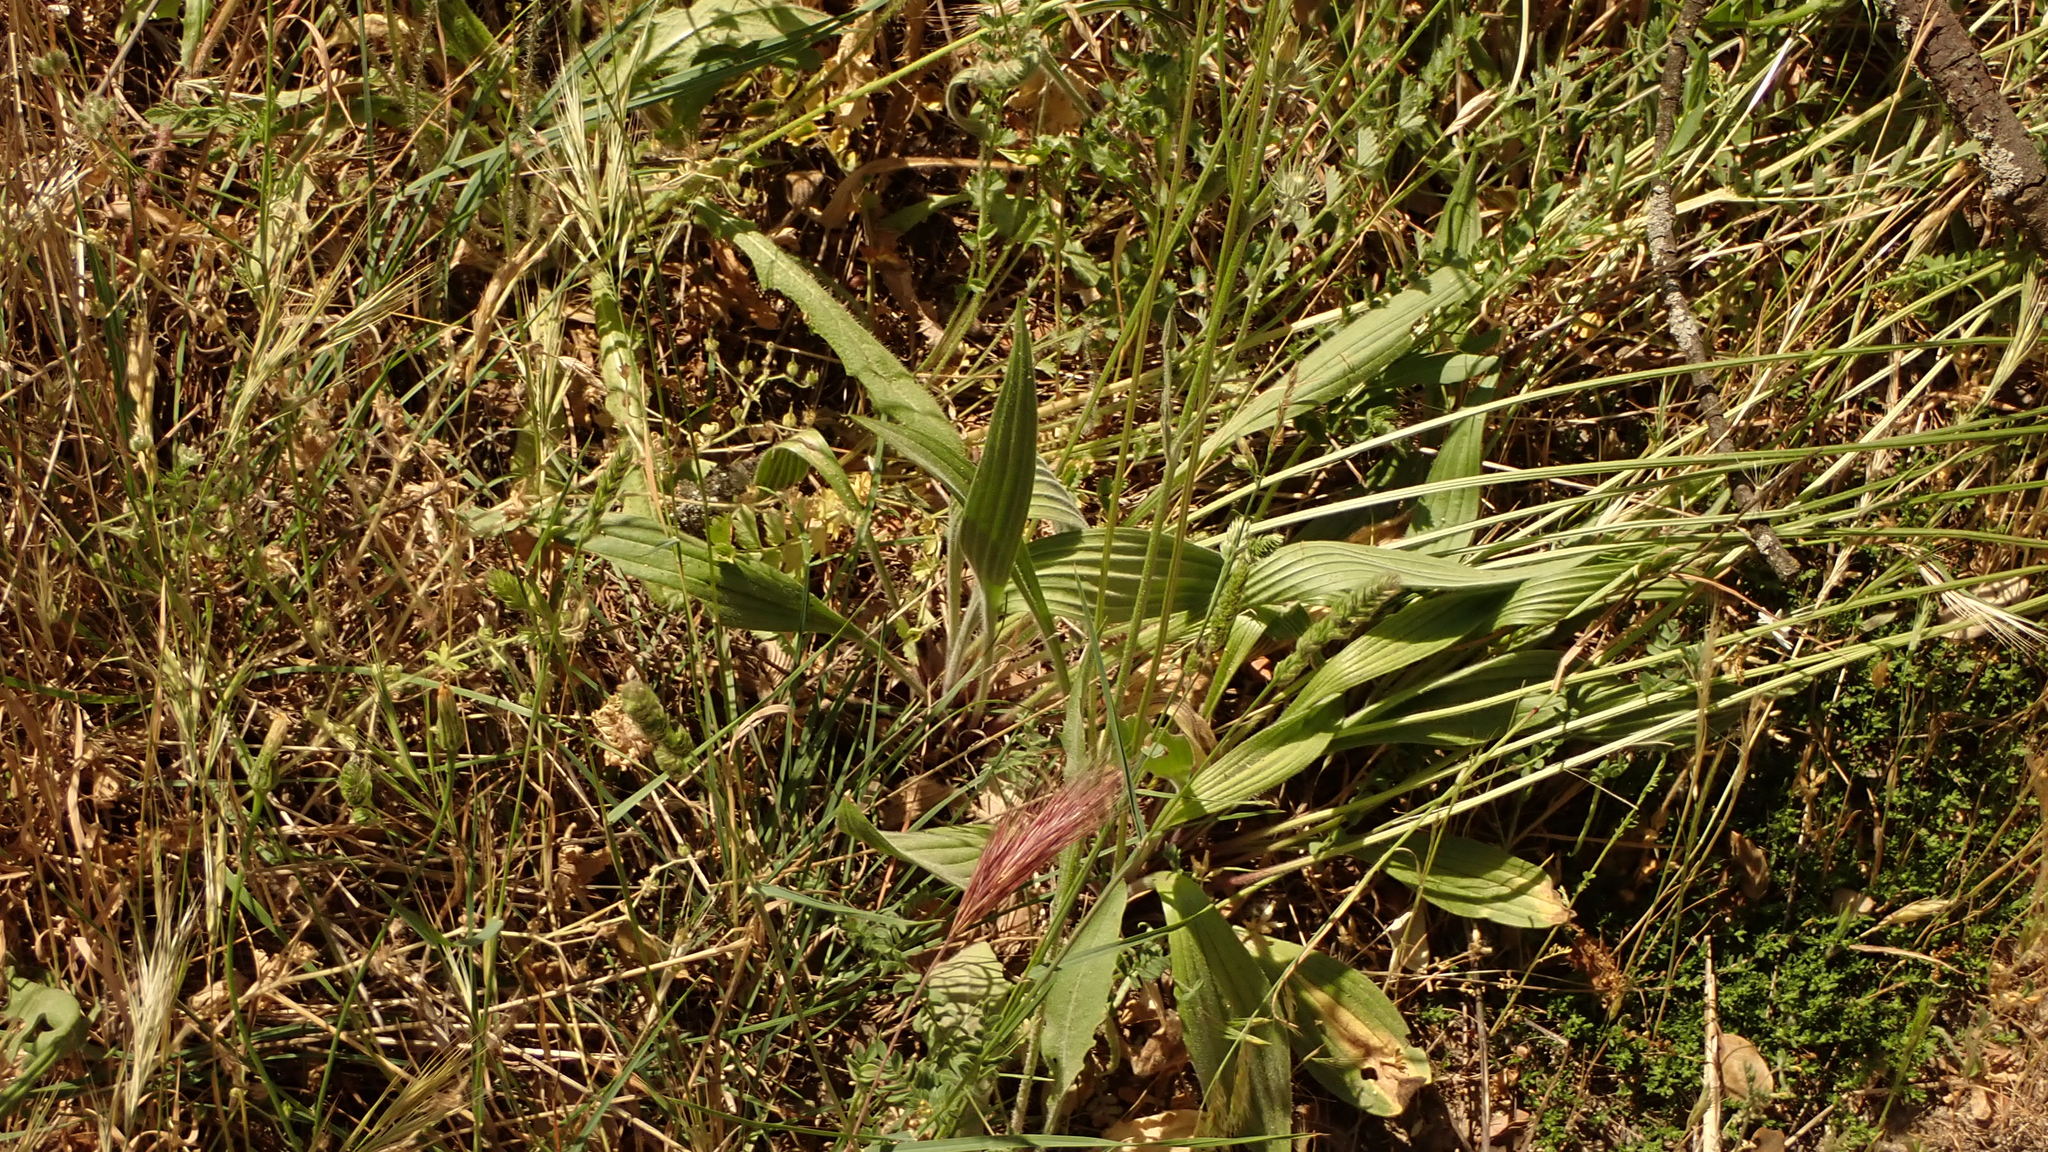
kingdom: Plantae
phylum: Tracheophyta
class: Magnoliopsida
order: Lamiales
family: Plantaginaceae
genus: Plantago
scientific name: Plantago lanceolata
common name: Ribwort plantain
